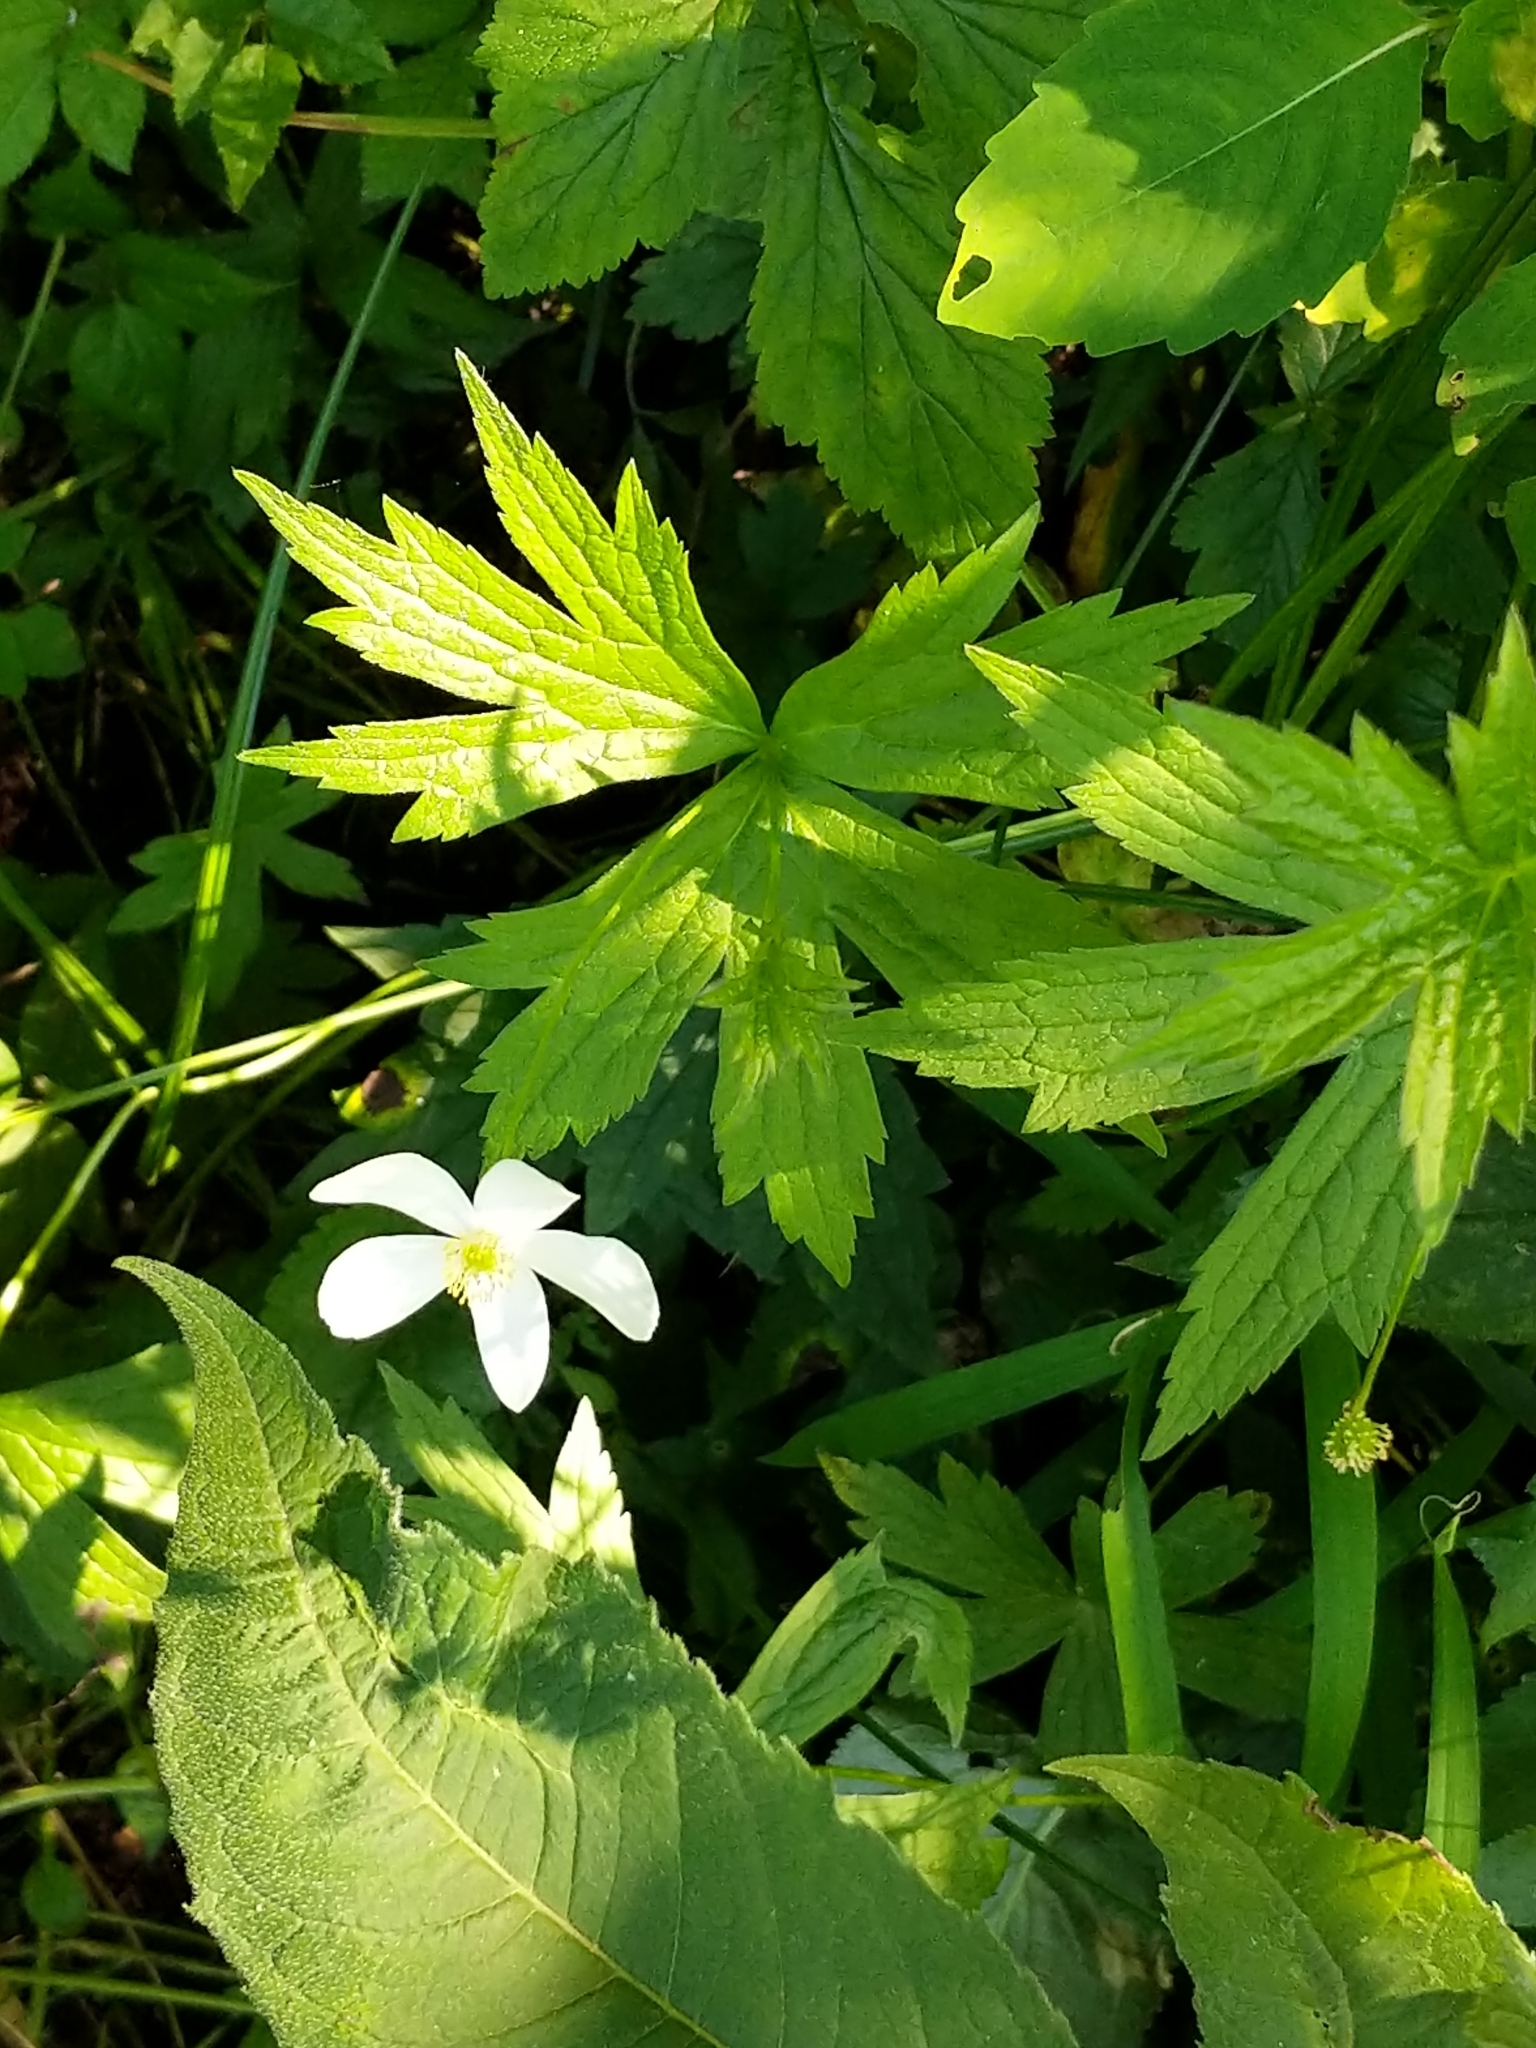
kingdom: Plantae
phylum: Tracheophyta
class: Magnoliopsida
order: Ranunculales
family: Ranunculaceae
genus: Anemonastrum
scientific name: Anemonastrum canadense
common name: Canada anemone
